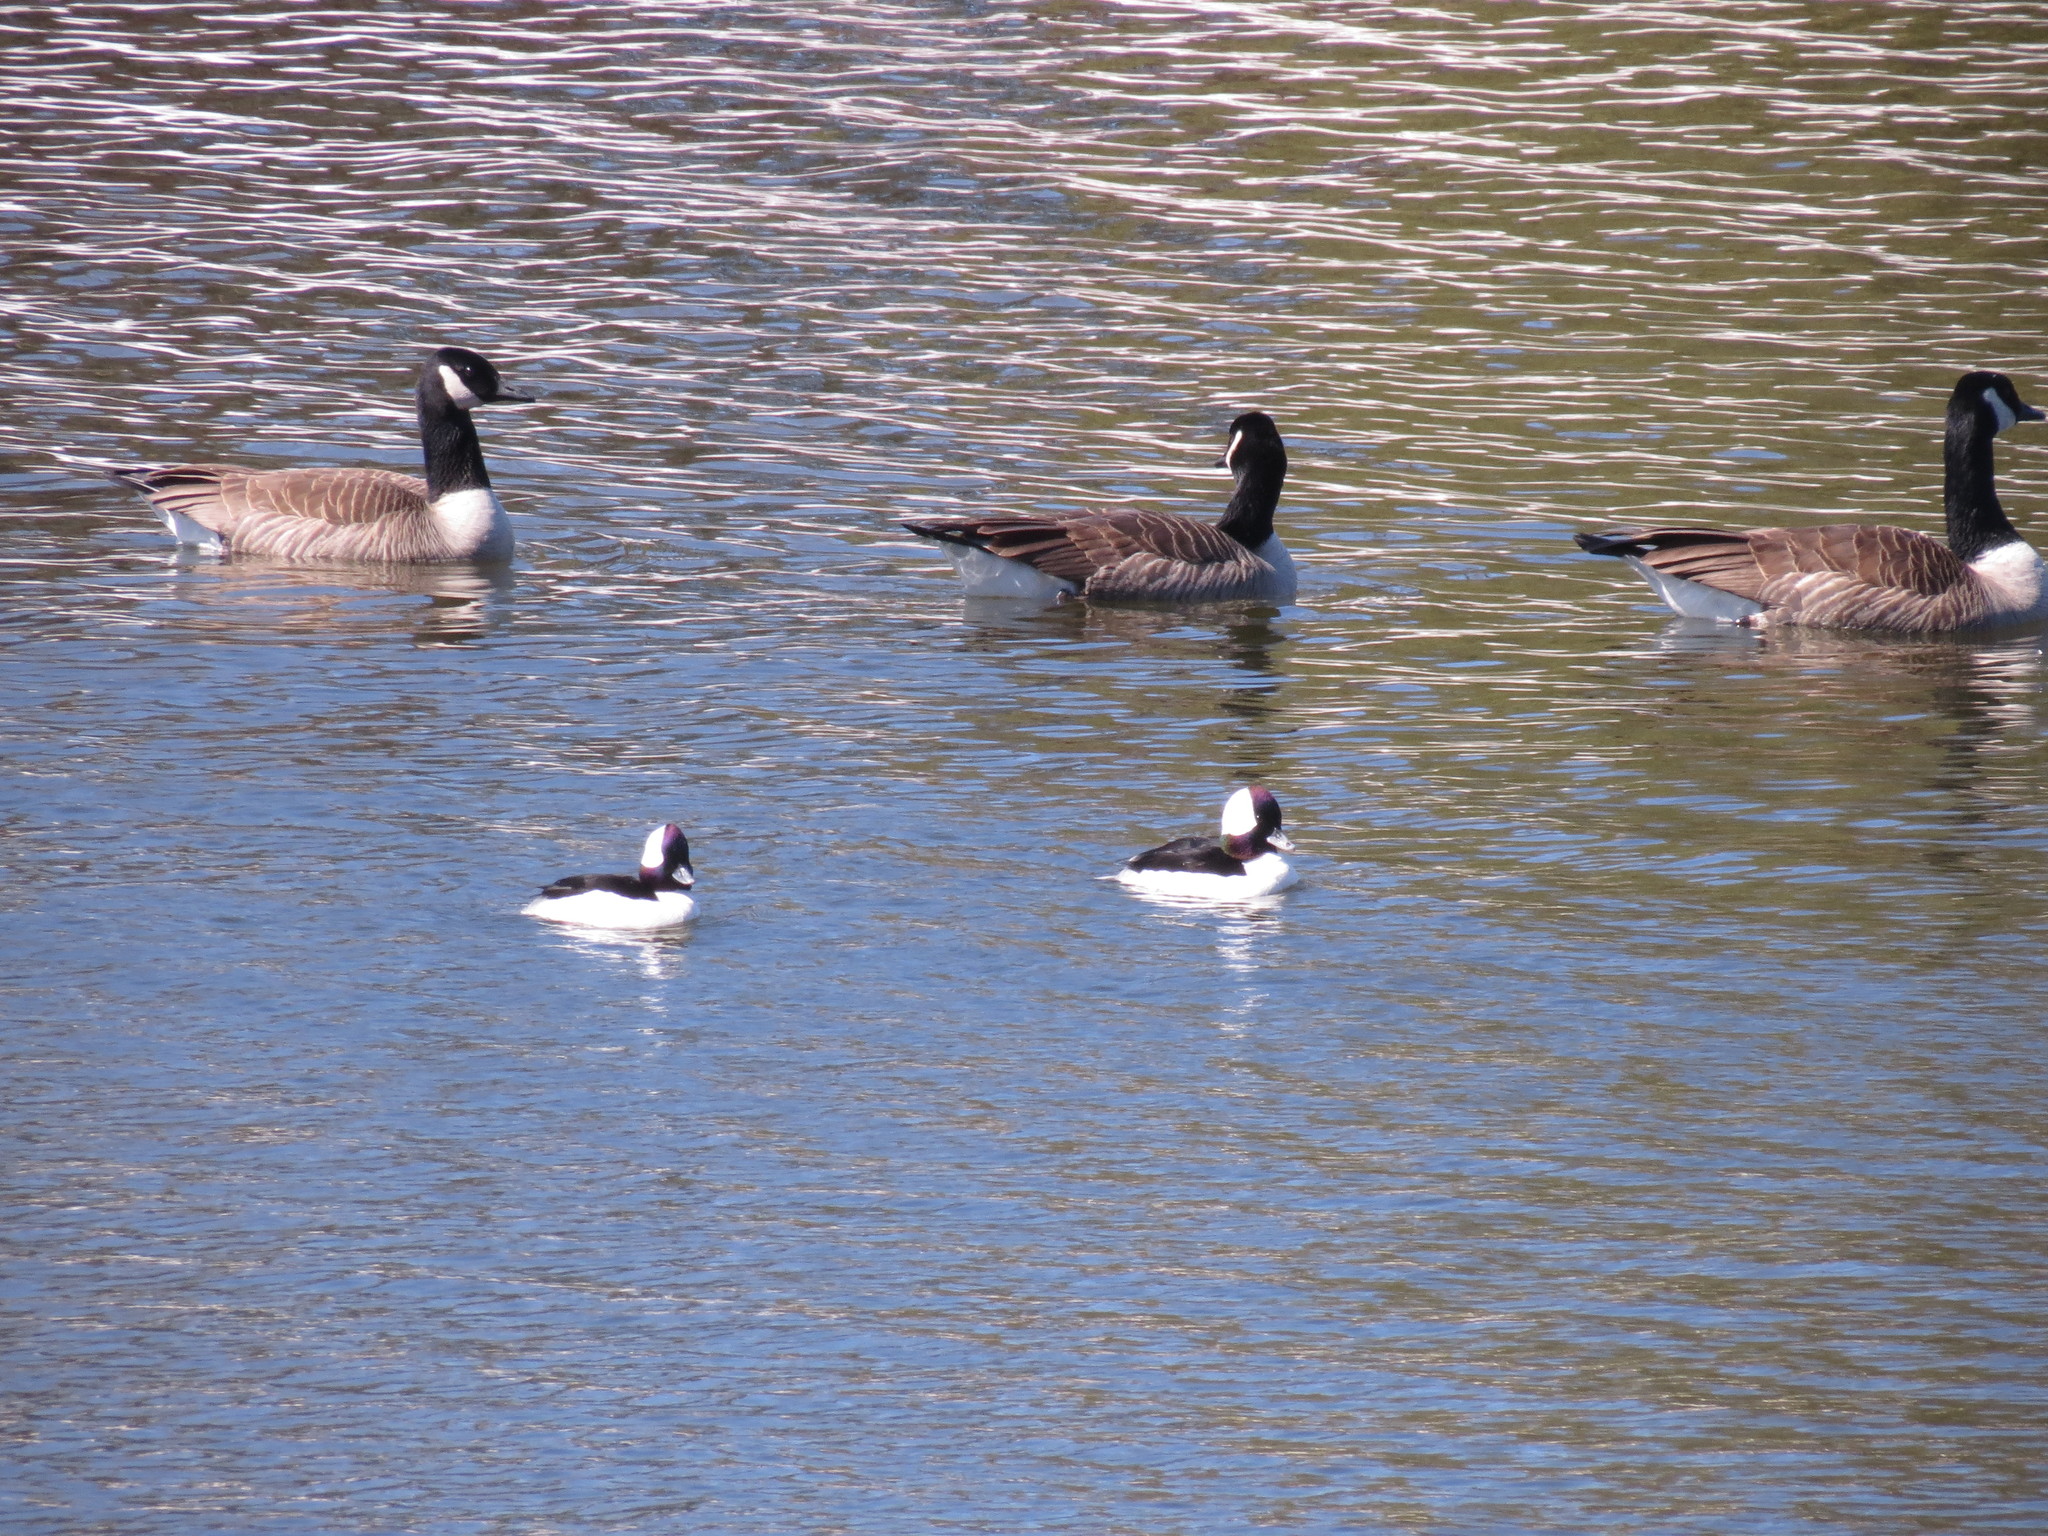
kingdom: Animalia
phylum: Chordata
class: Aves
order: Anseriformes
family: Anatidae
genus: Branta
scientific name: Branta canadensis
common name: Canada goose
